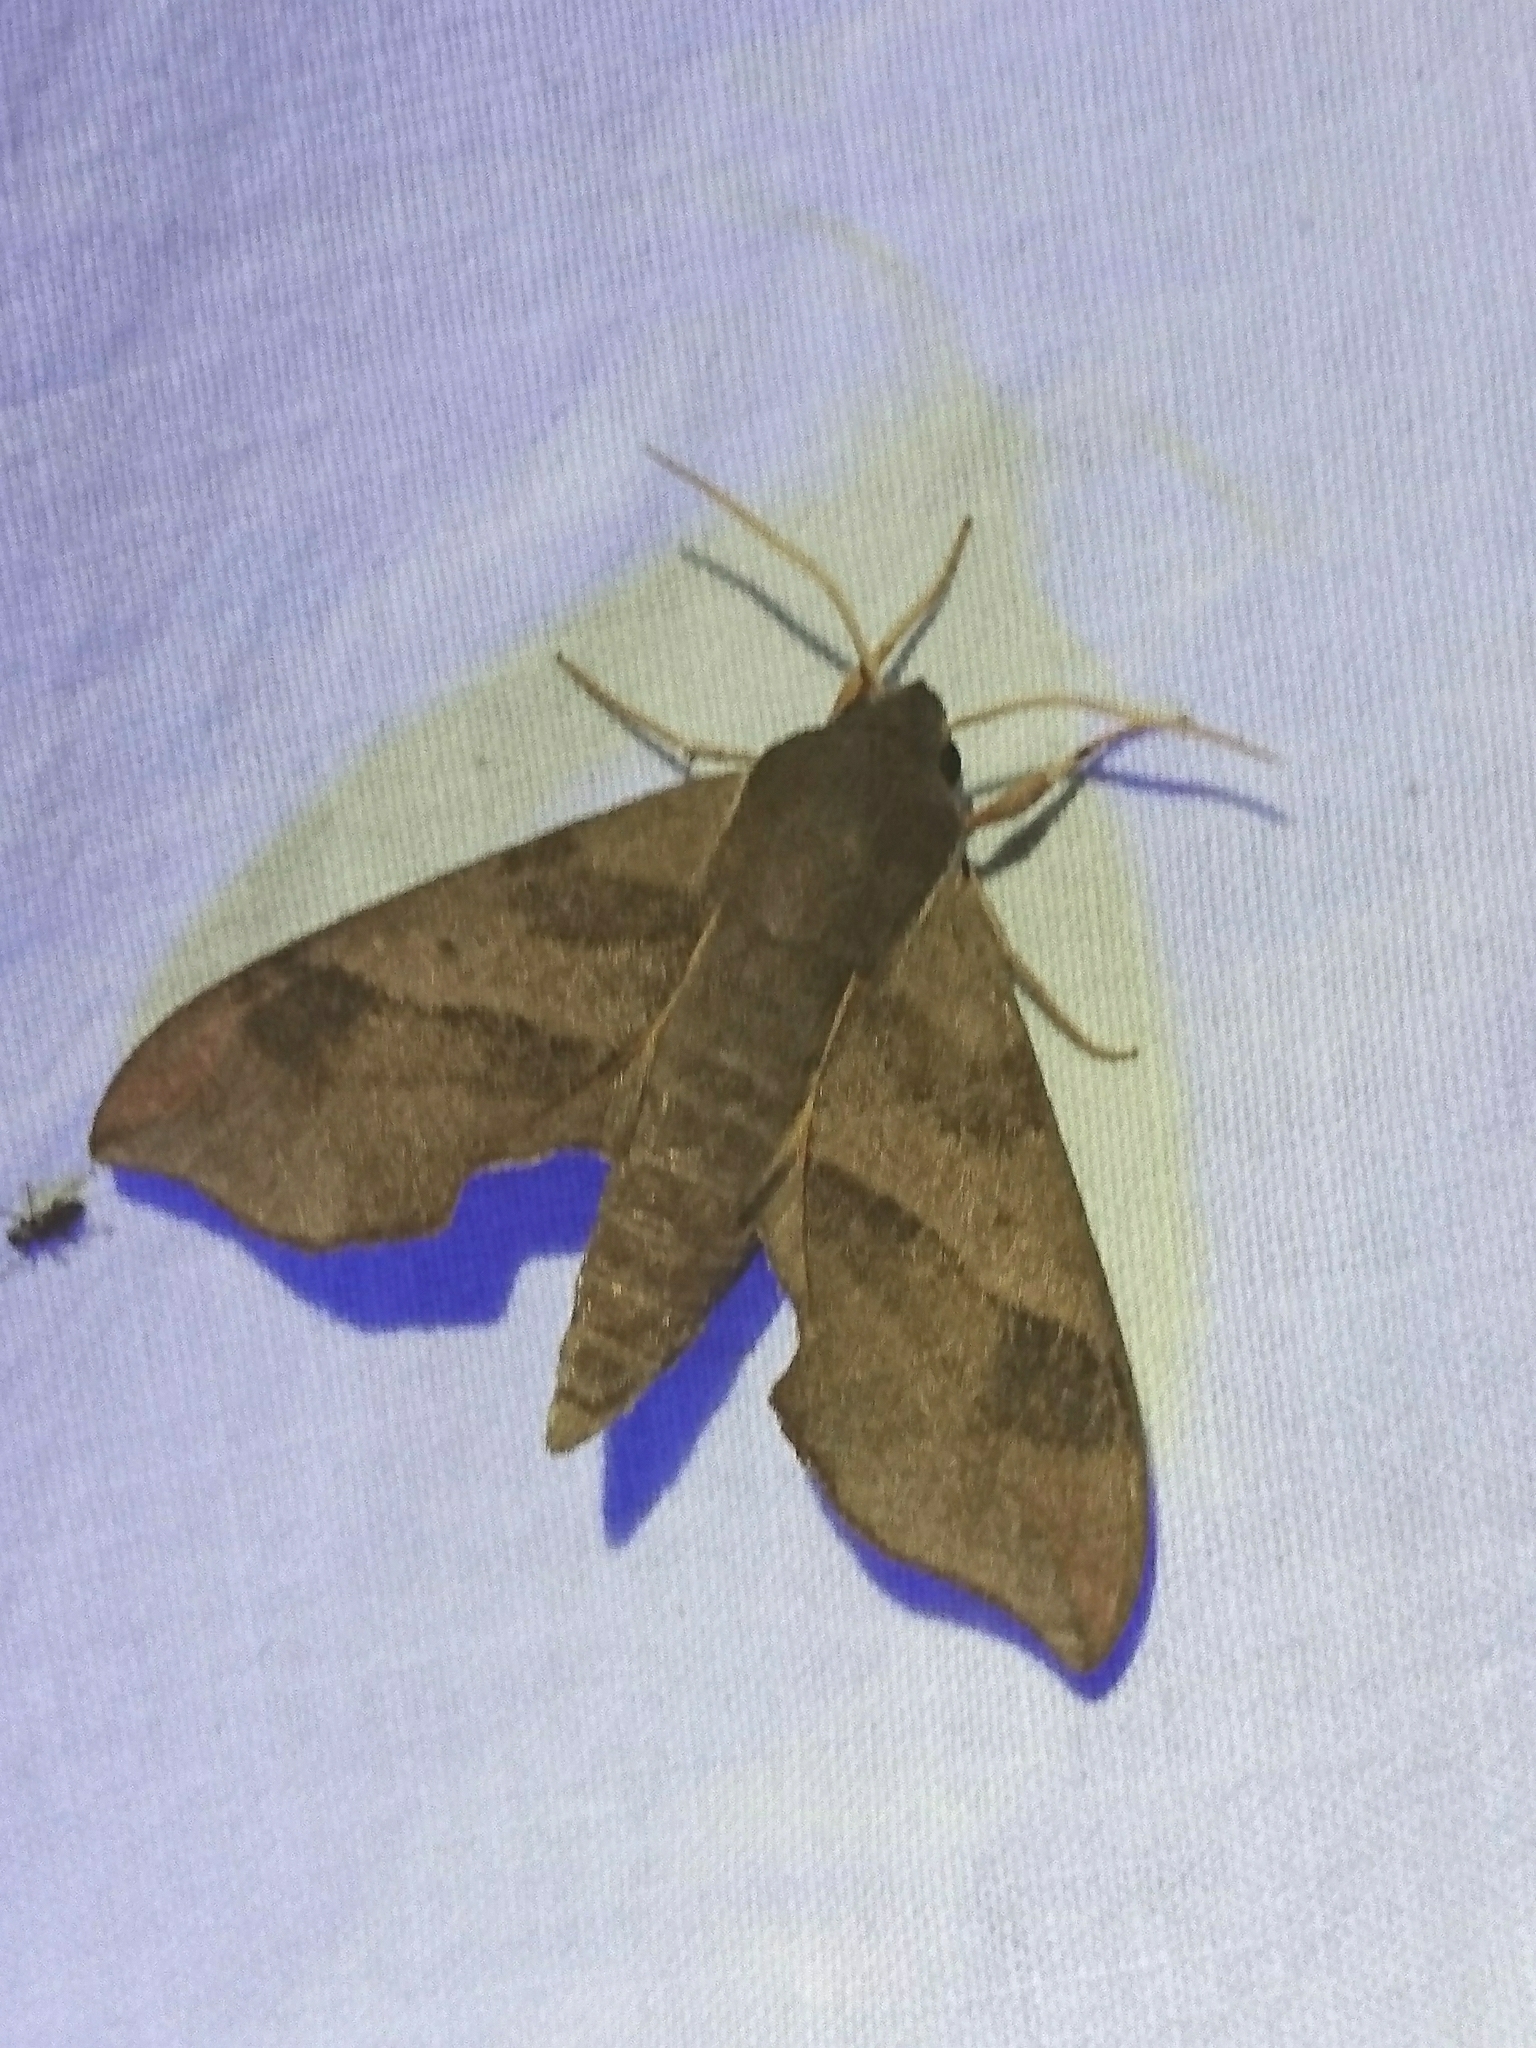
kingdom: Animalia
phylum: Arthropoda
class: Insecta
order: Lepidoptera
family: Sphingidae
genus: Darapsa
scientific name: Darapsa myron
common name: Hog sphinx
